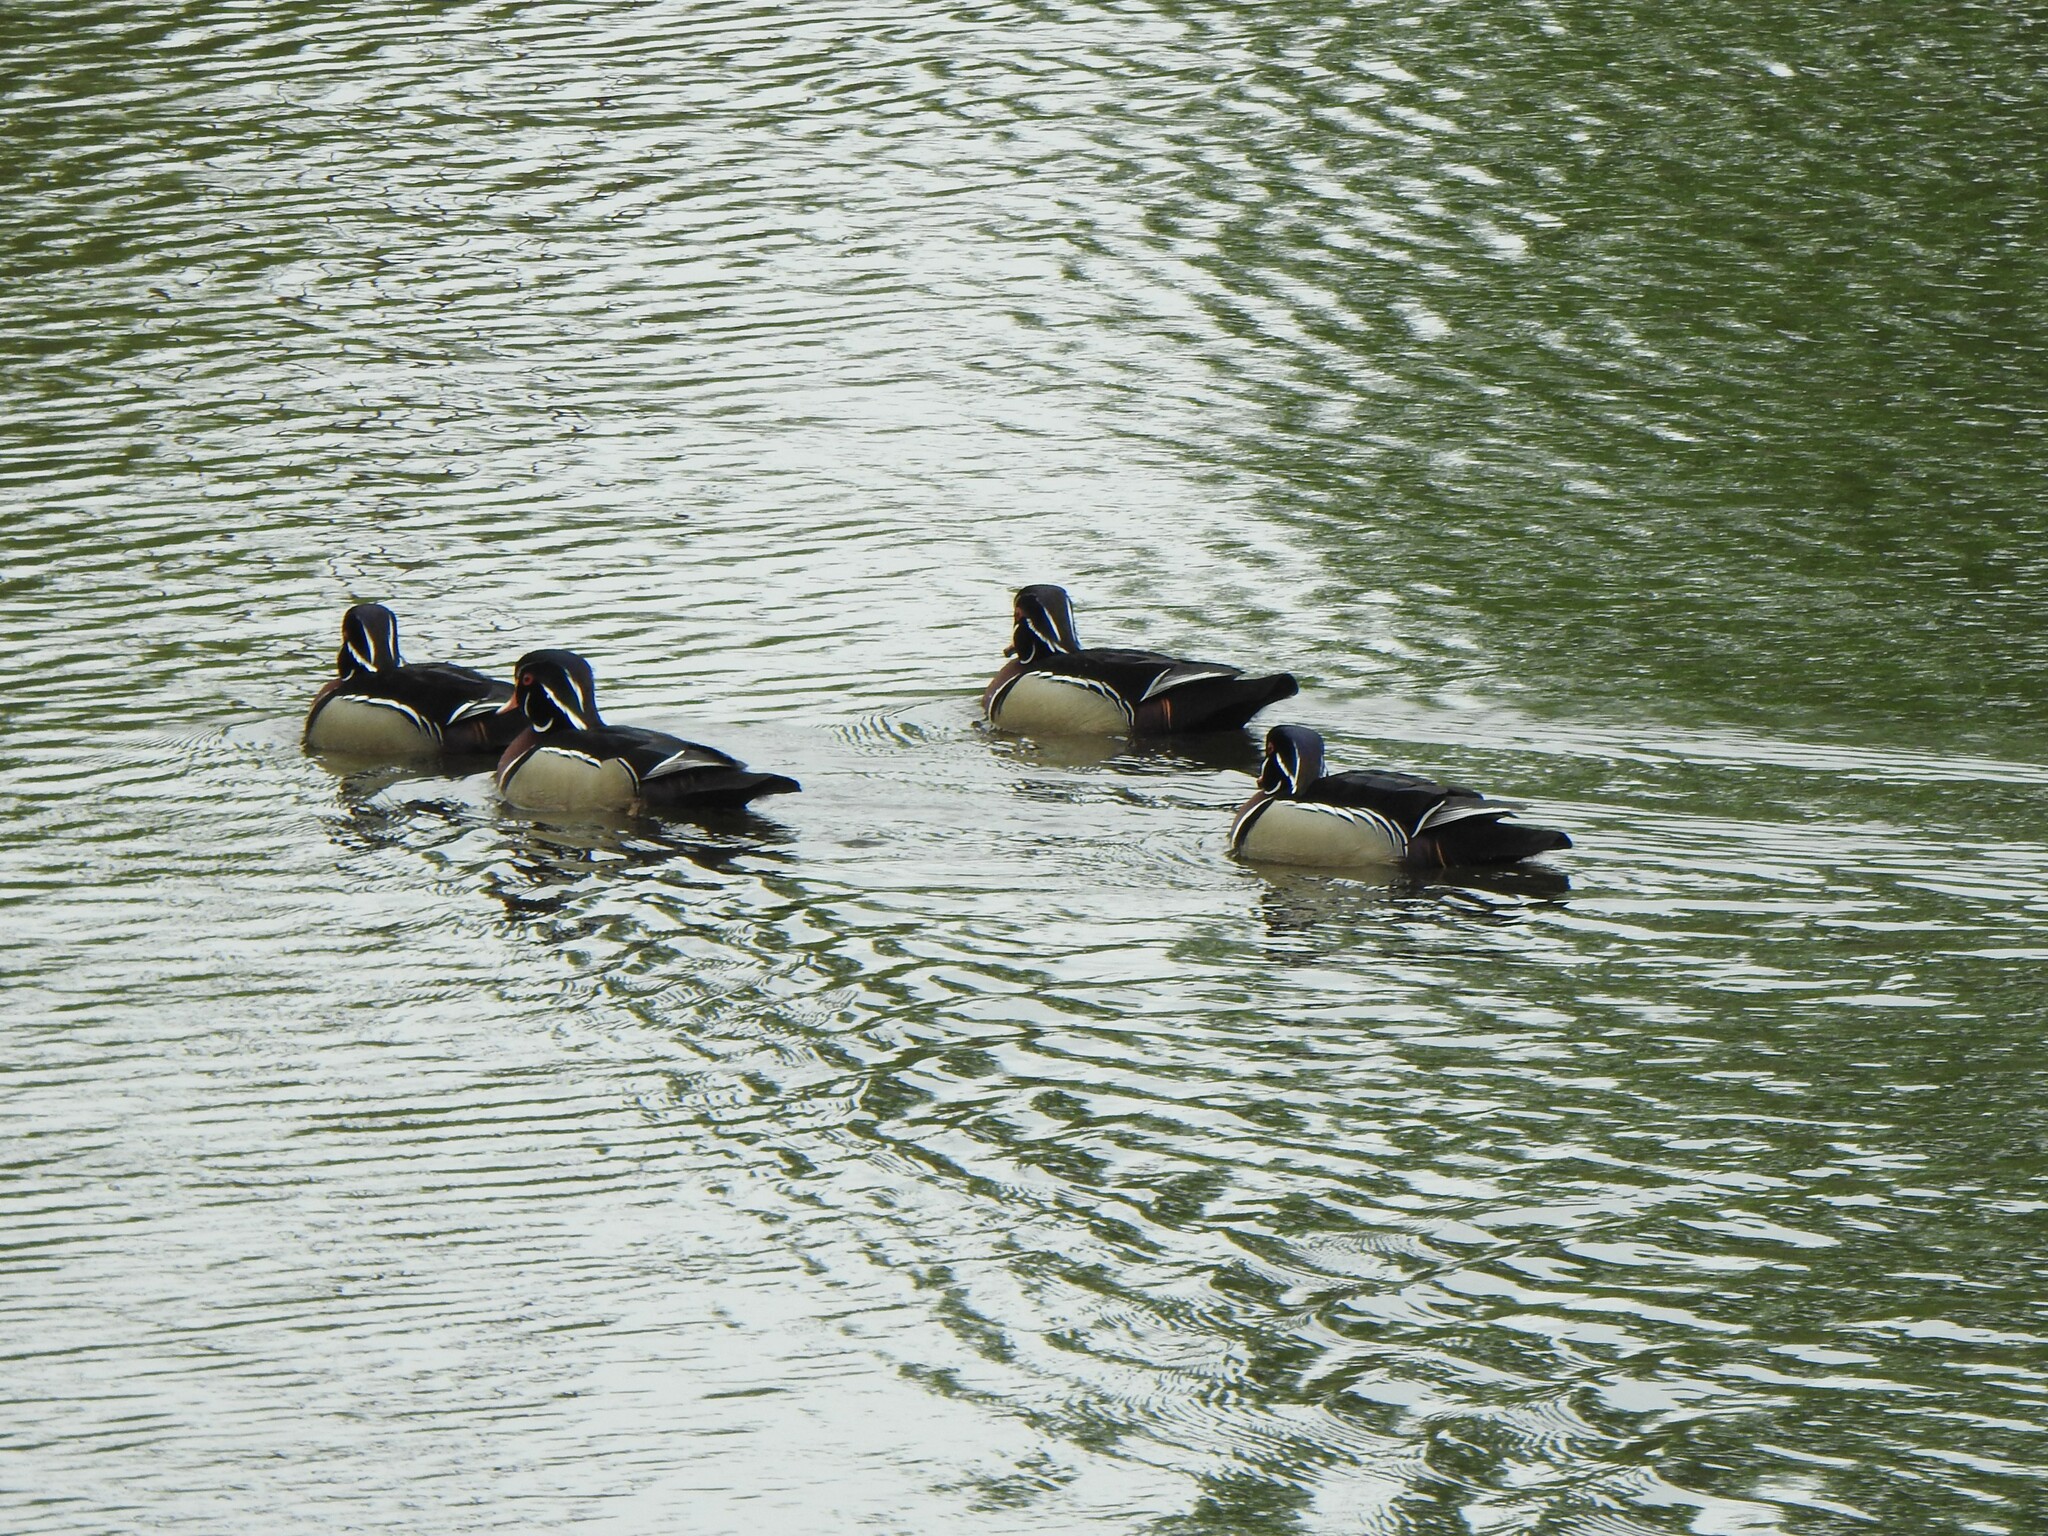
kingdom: Animalia
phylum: Chordata
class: Aves
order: Anseriformes
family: Anatidae
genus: Aix
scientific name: Aix sponsa
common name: Wood duck
